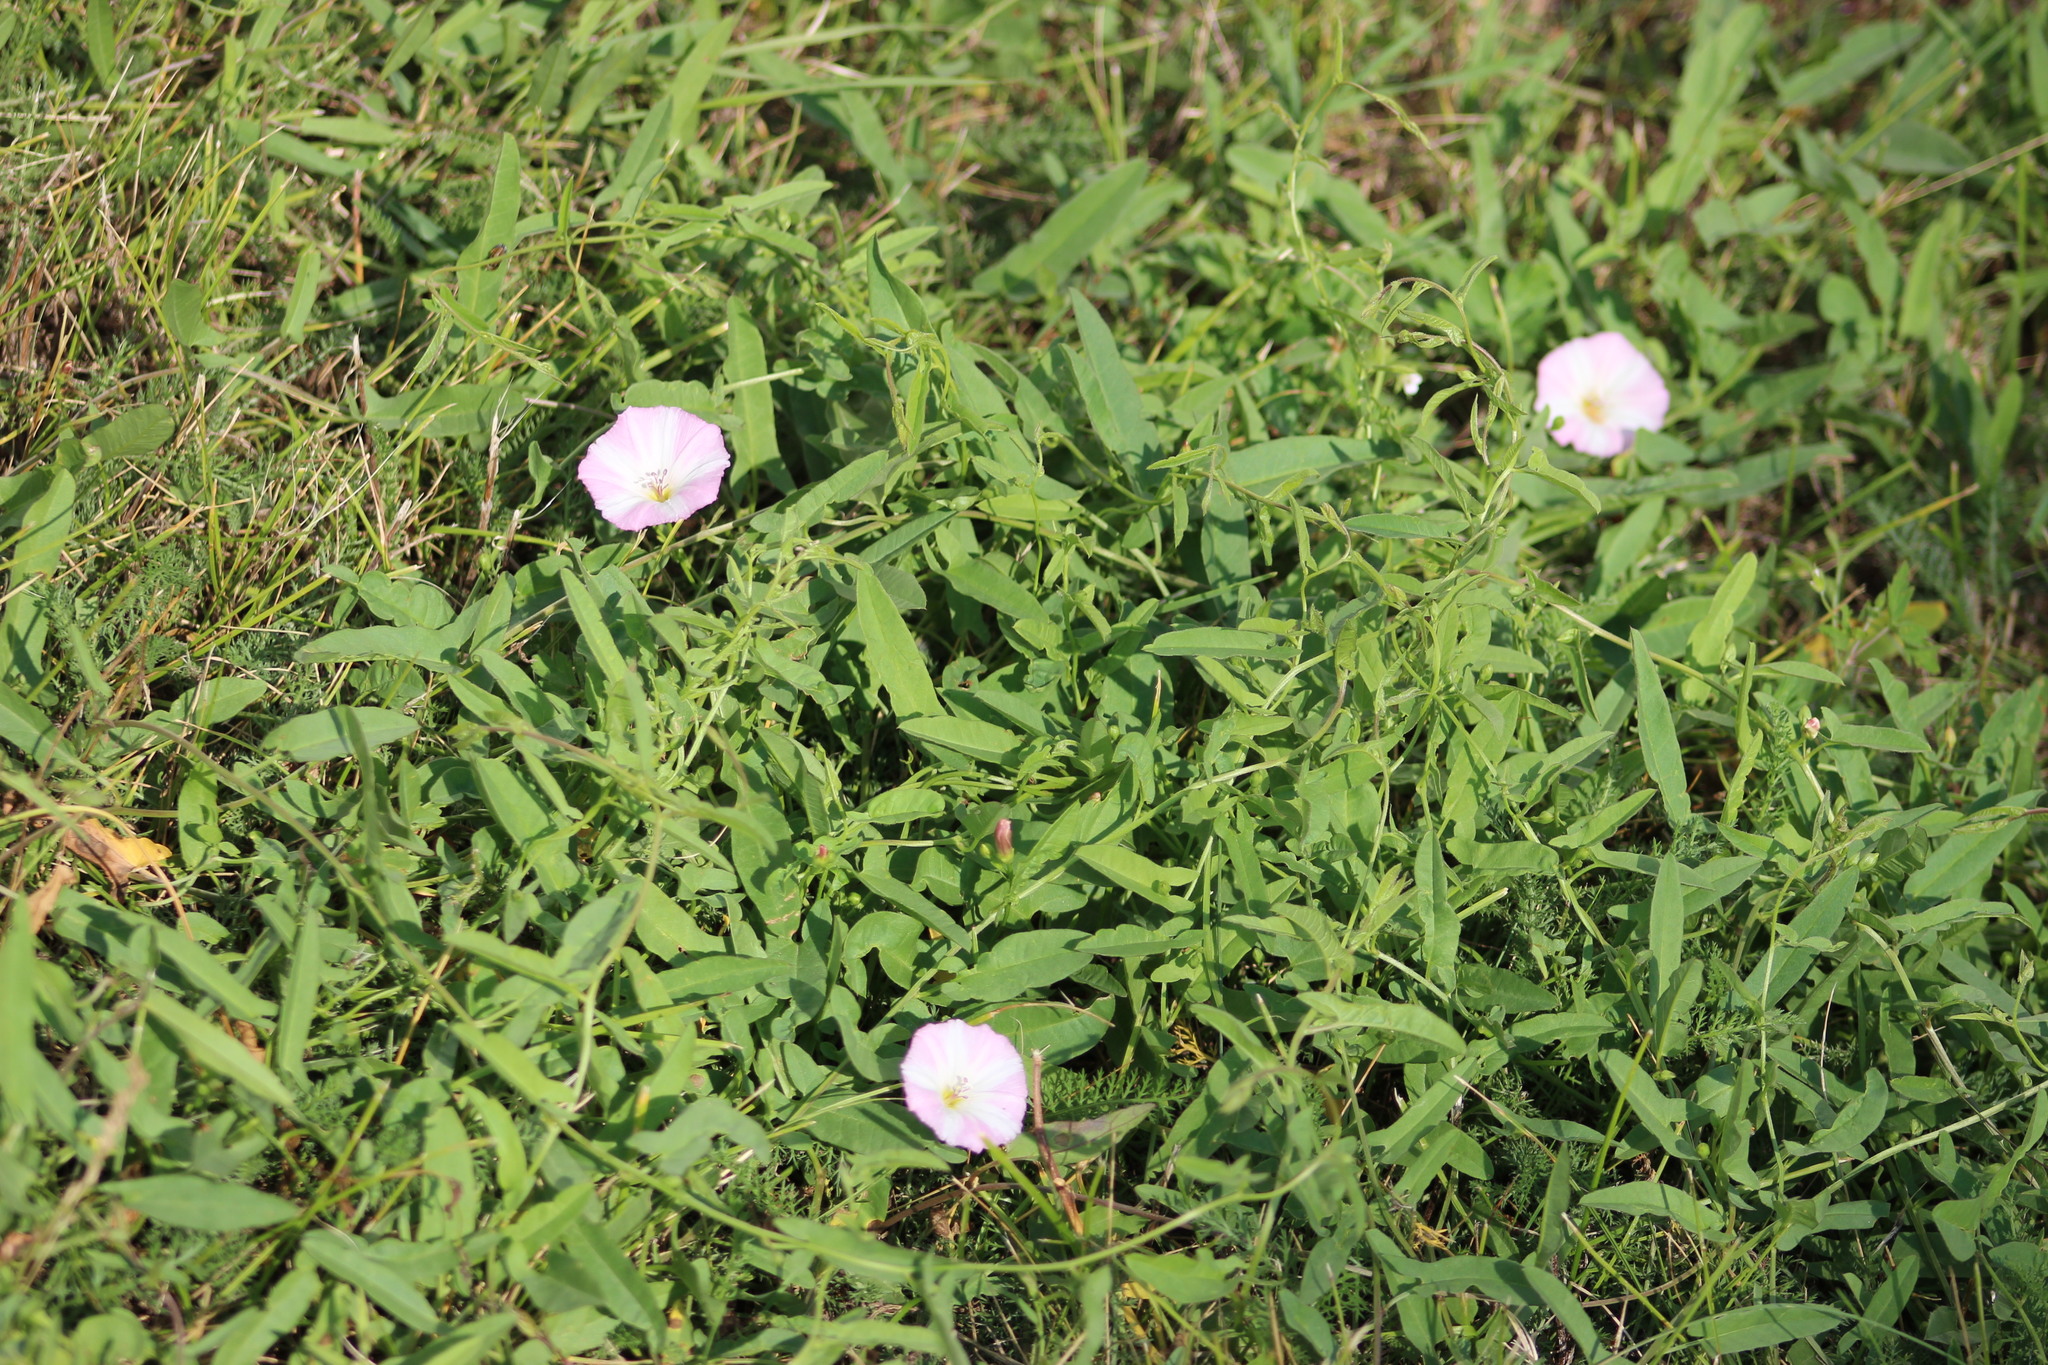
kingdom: Plantae
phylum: Tracheophyta
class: Magnoliopsida
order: Solanales
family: Convolvulaceae
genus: Convolvulus
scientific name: Convolvulus arvensis
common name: Field bindweed
